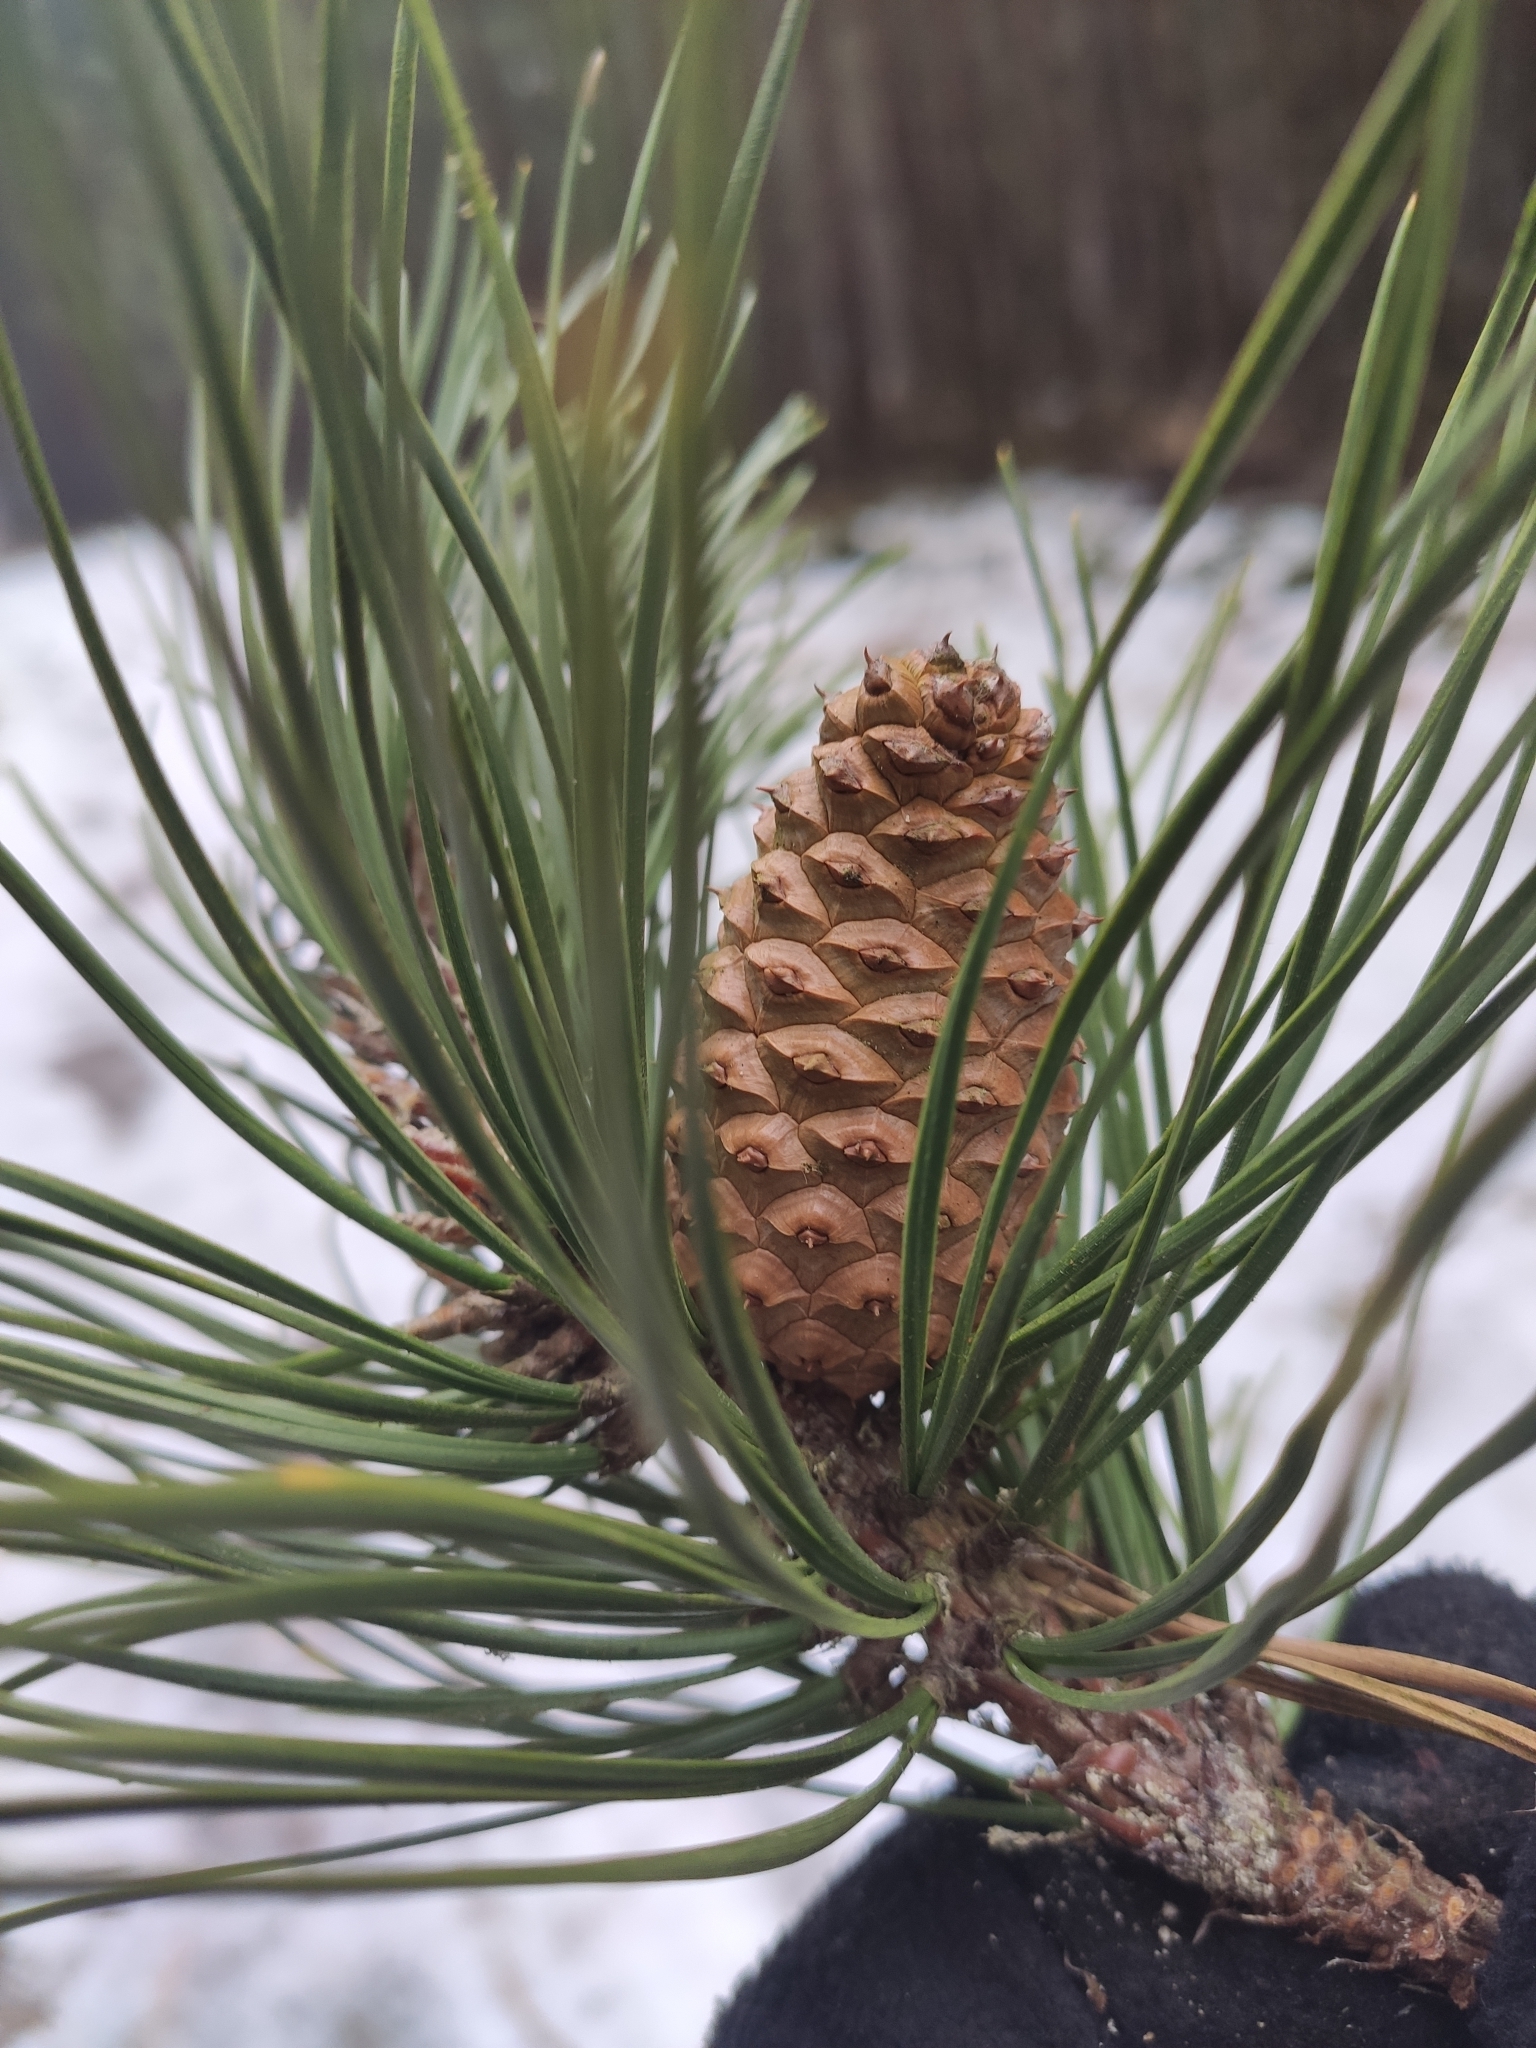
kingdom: Plantae
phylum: Tracheophyta
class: Pinopsida
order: Pinales
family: Pinaceae
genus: Pinus
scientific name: Pinus rigida
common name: Pitch pine
